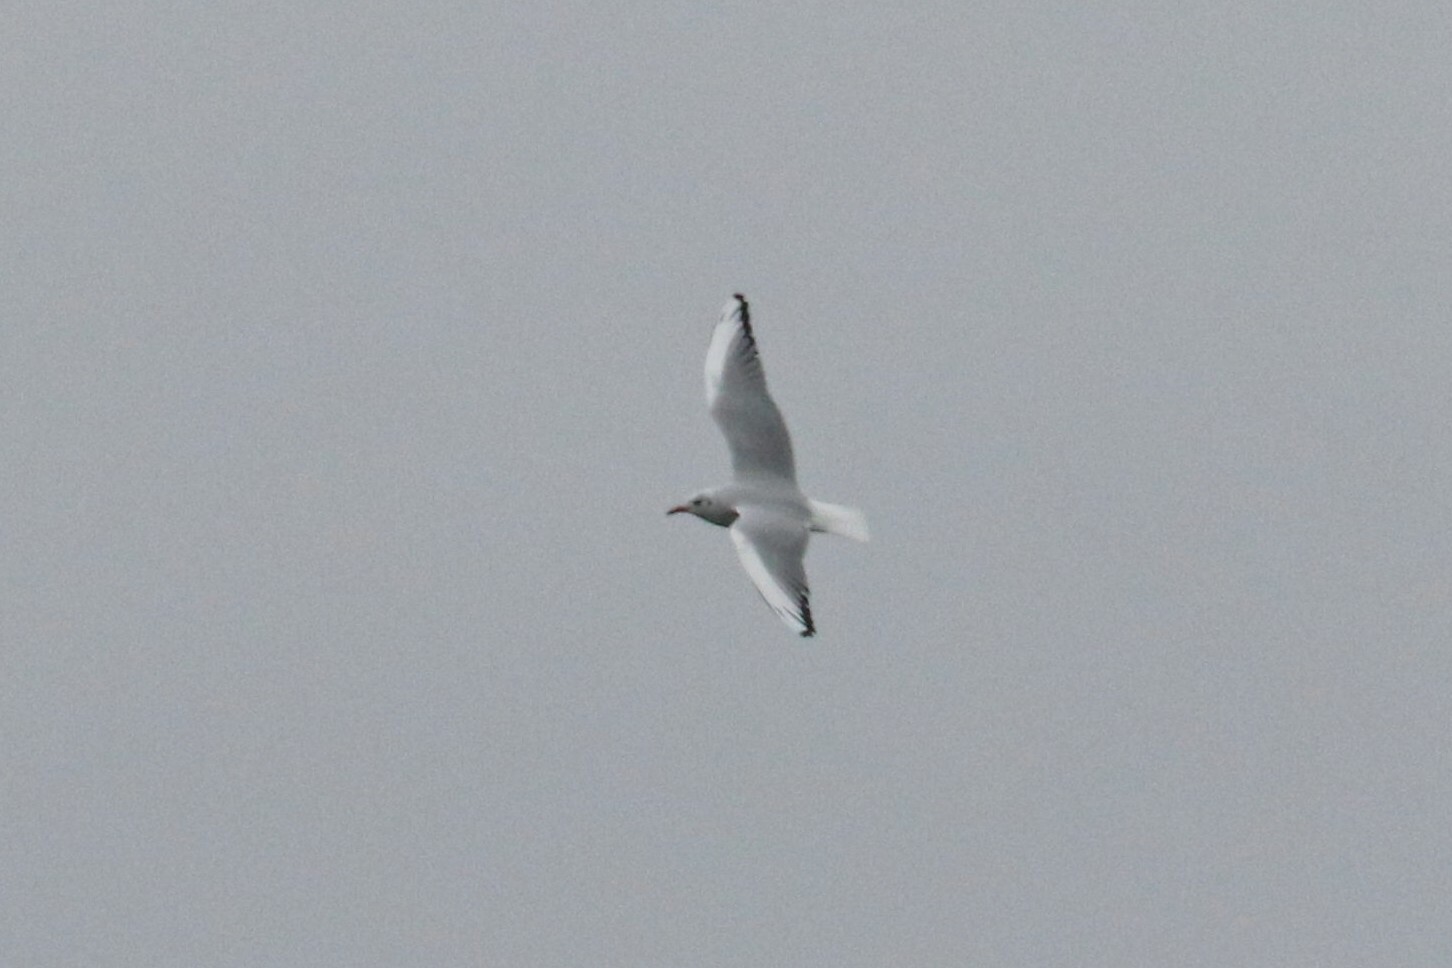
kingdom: Animalia
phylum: Chordata
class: Aves
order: Charadriiformes
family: Laridae
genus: Chroicocephalus
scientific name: Chroicocephalus ridibundus
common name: Black-headed gull
